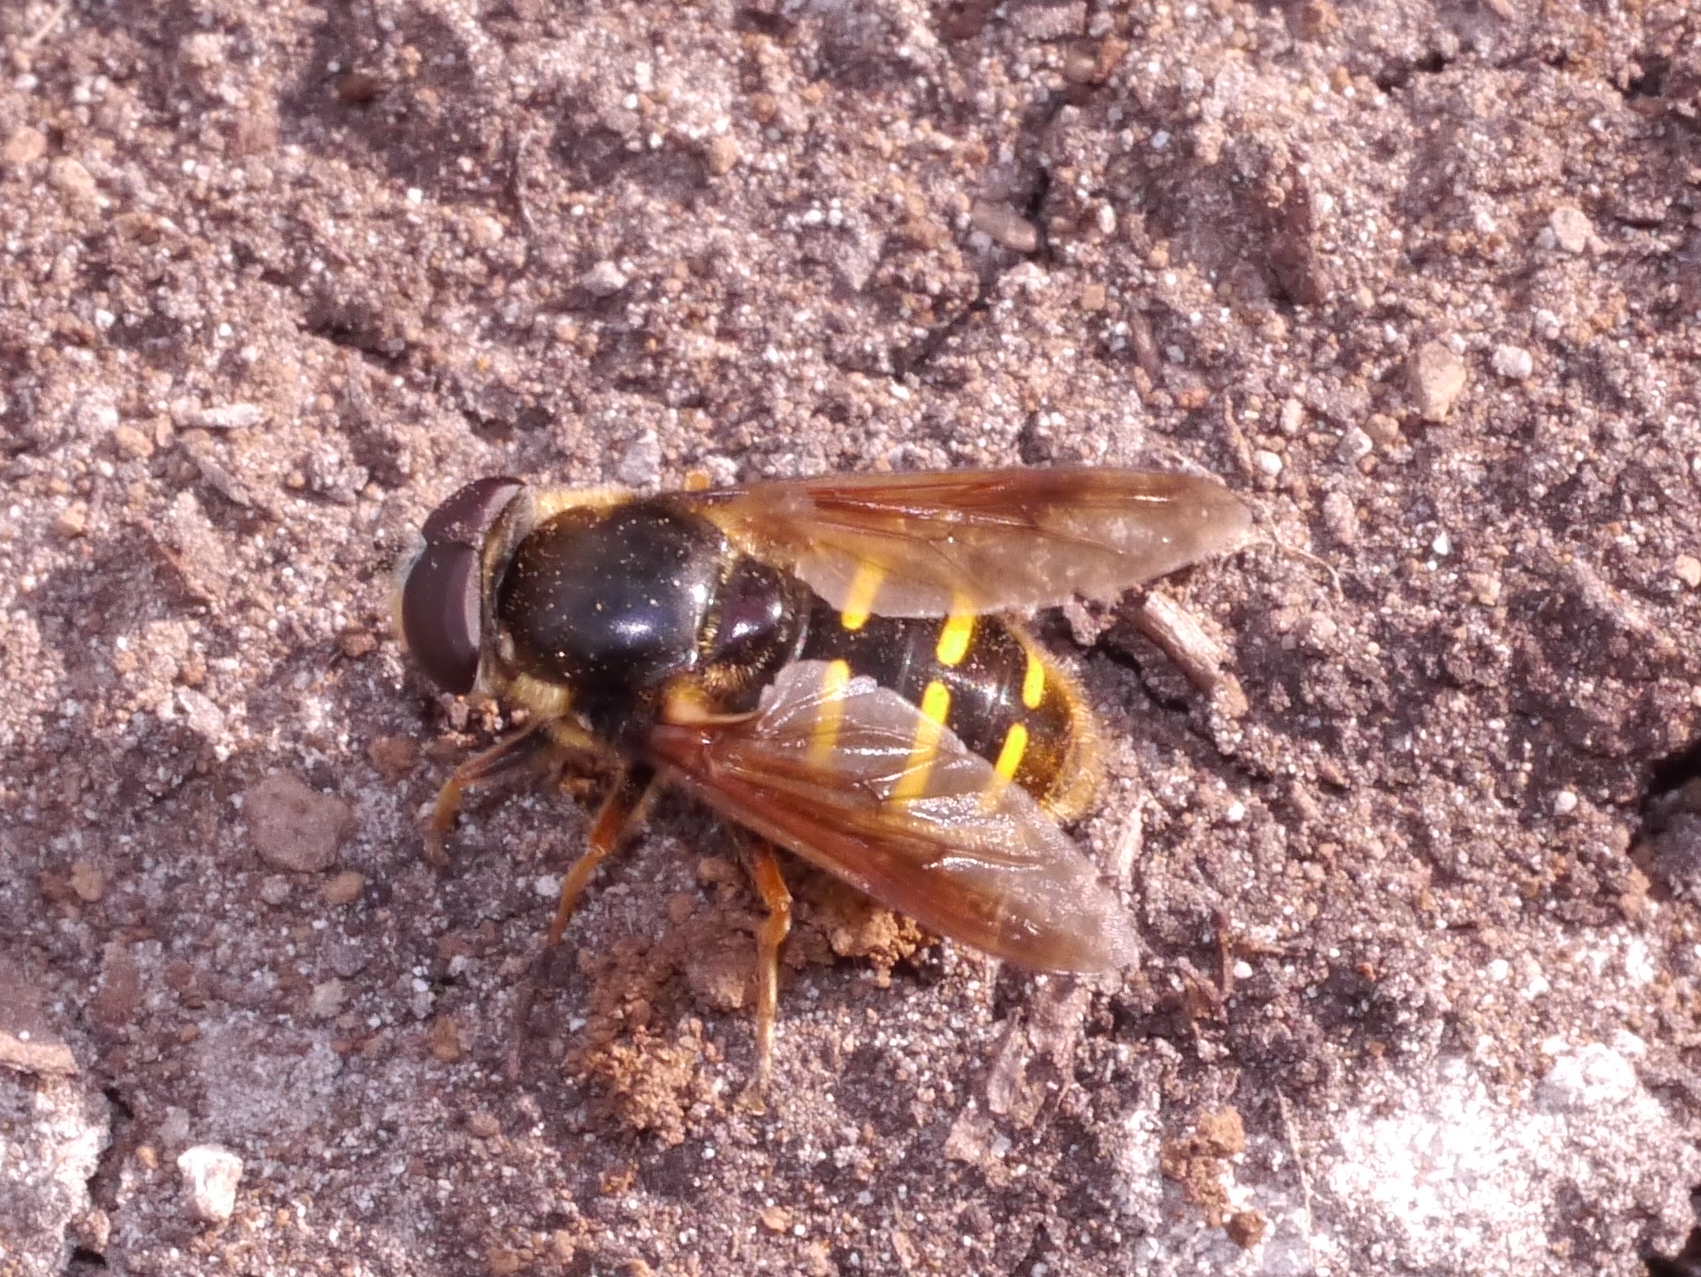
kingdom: Animalia
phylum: Arthropoda
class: Insecta
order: Diptera
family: Syrphidae
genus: Sericomyia
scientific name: Sericomyia chalcopyga
